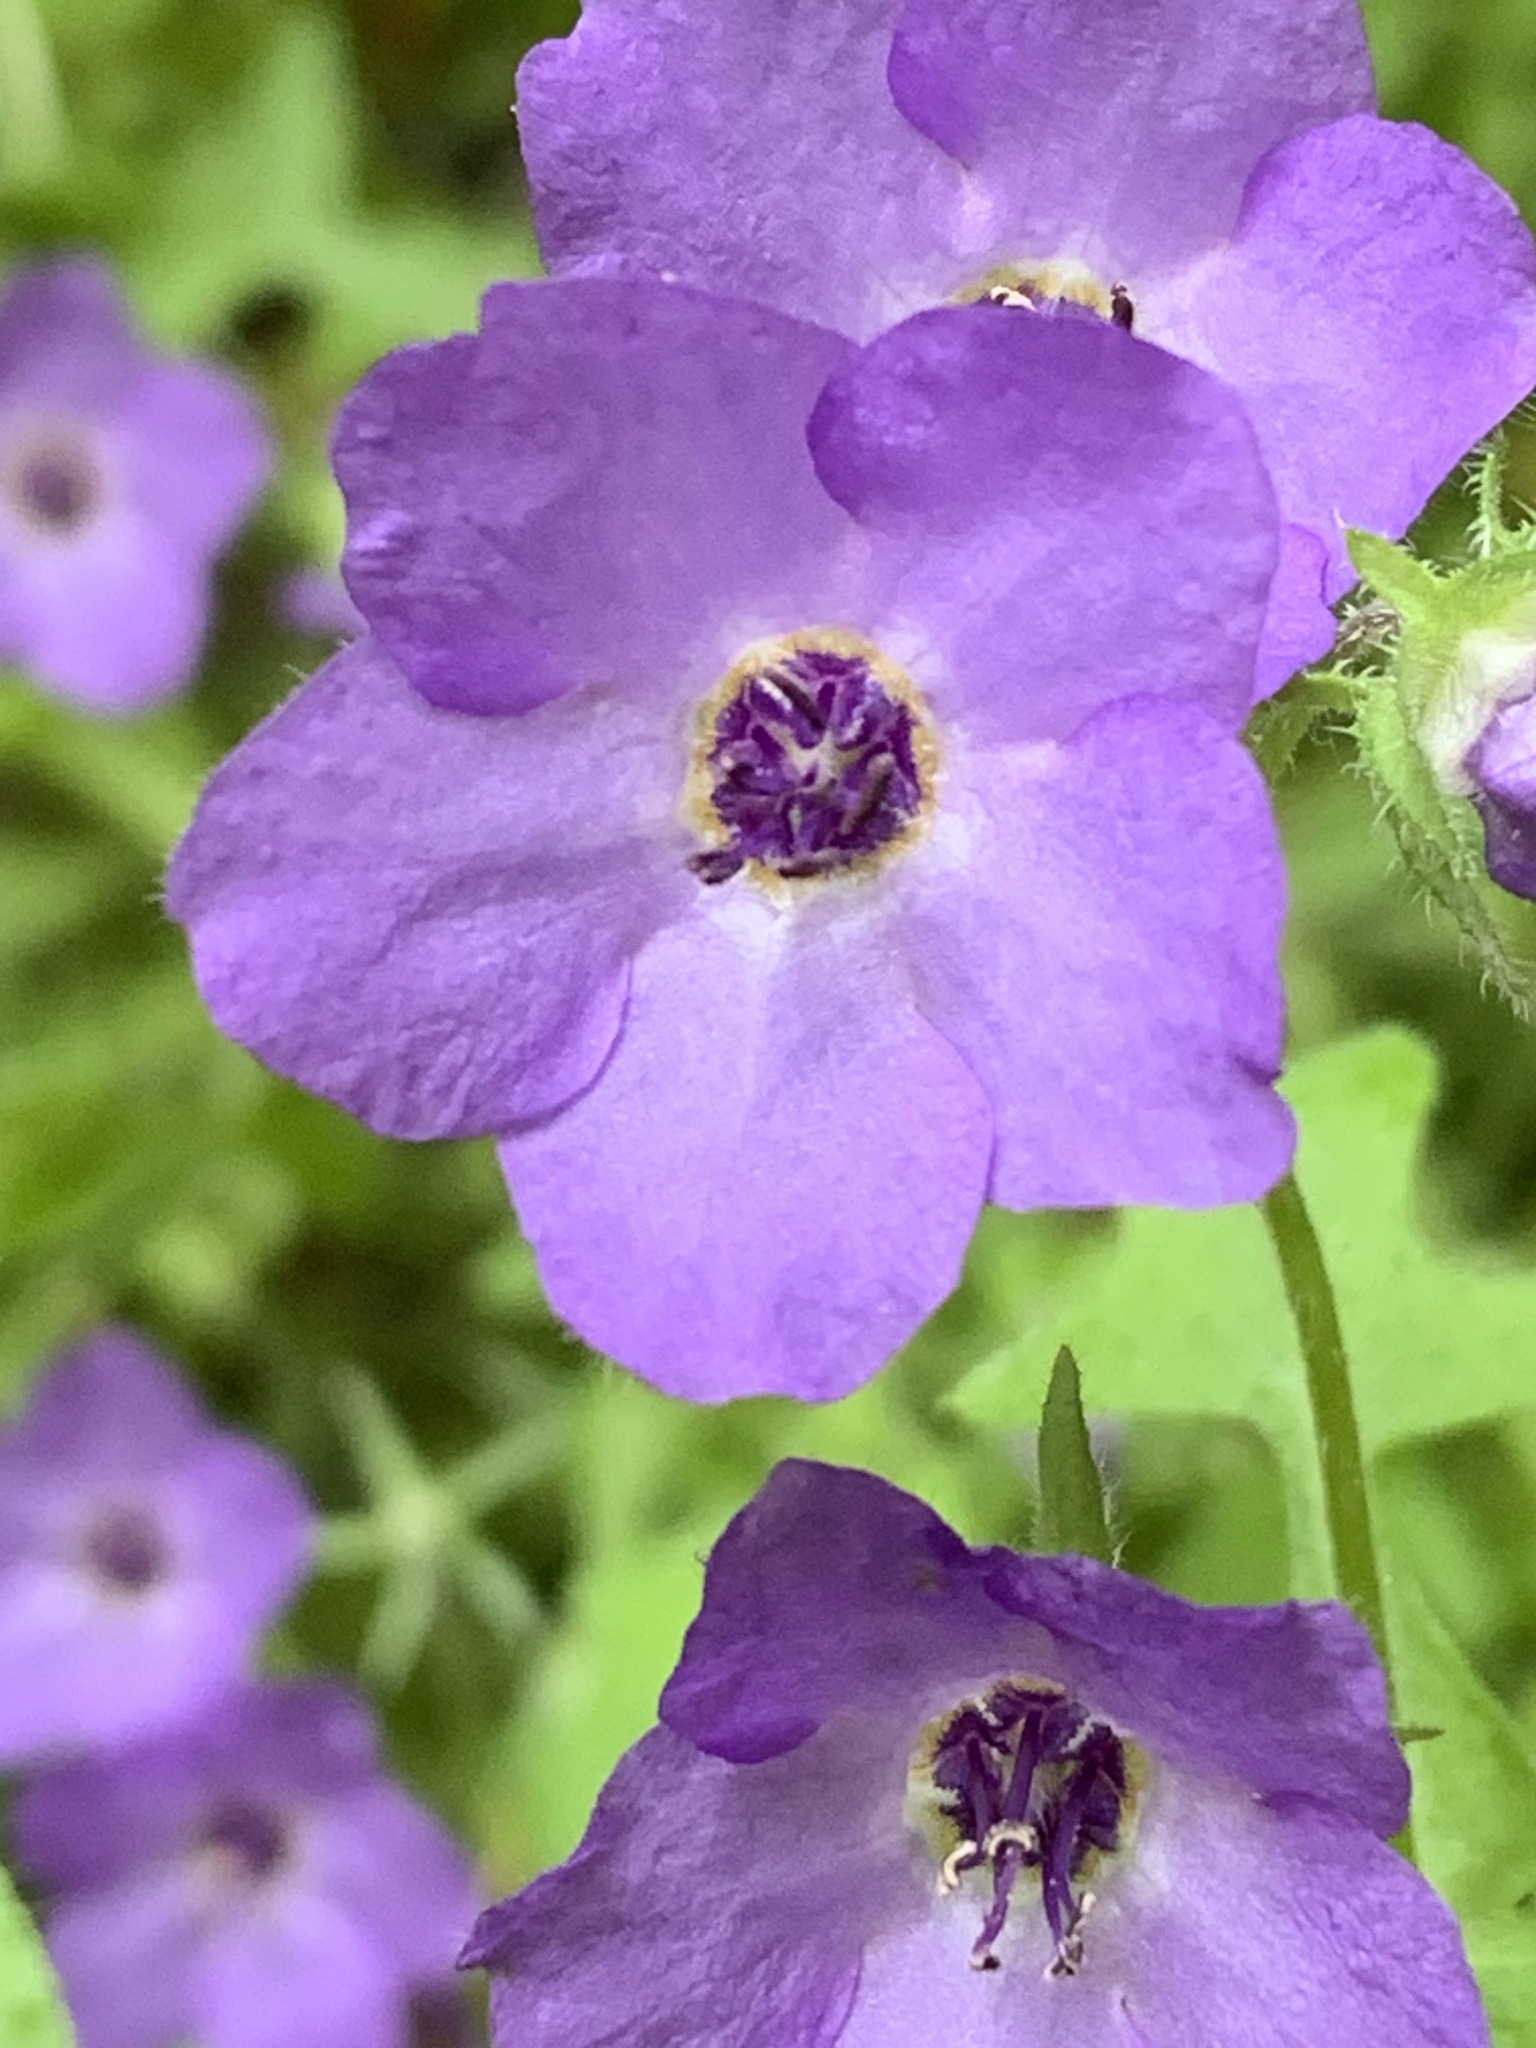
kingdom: Plantae
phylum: Tracheophyta
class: Magnoliopsida
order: Boraginales
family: Hydrophyllaceae
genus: Pholistoma
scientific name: Pholistoma auritum
